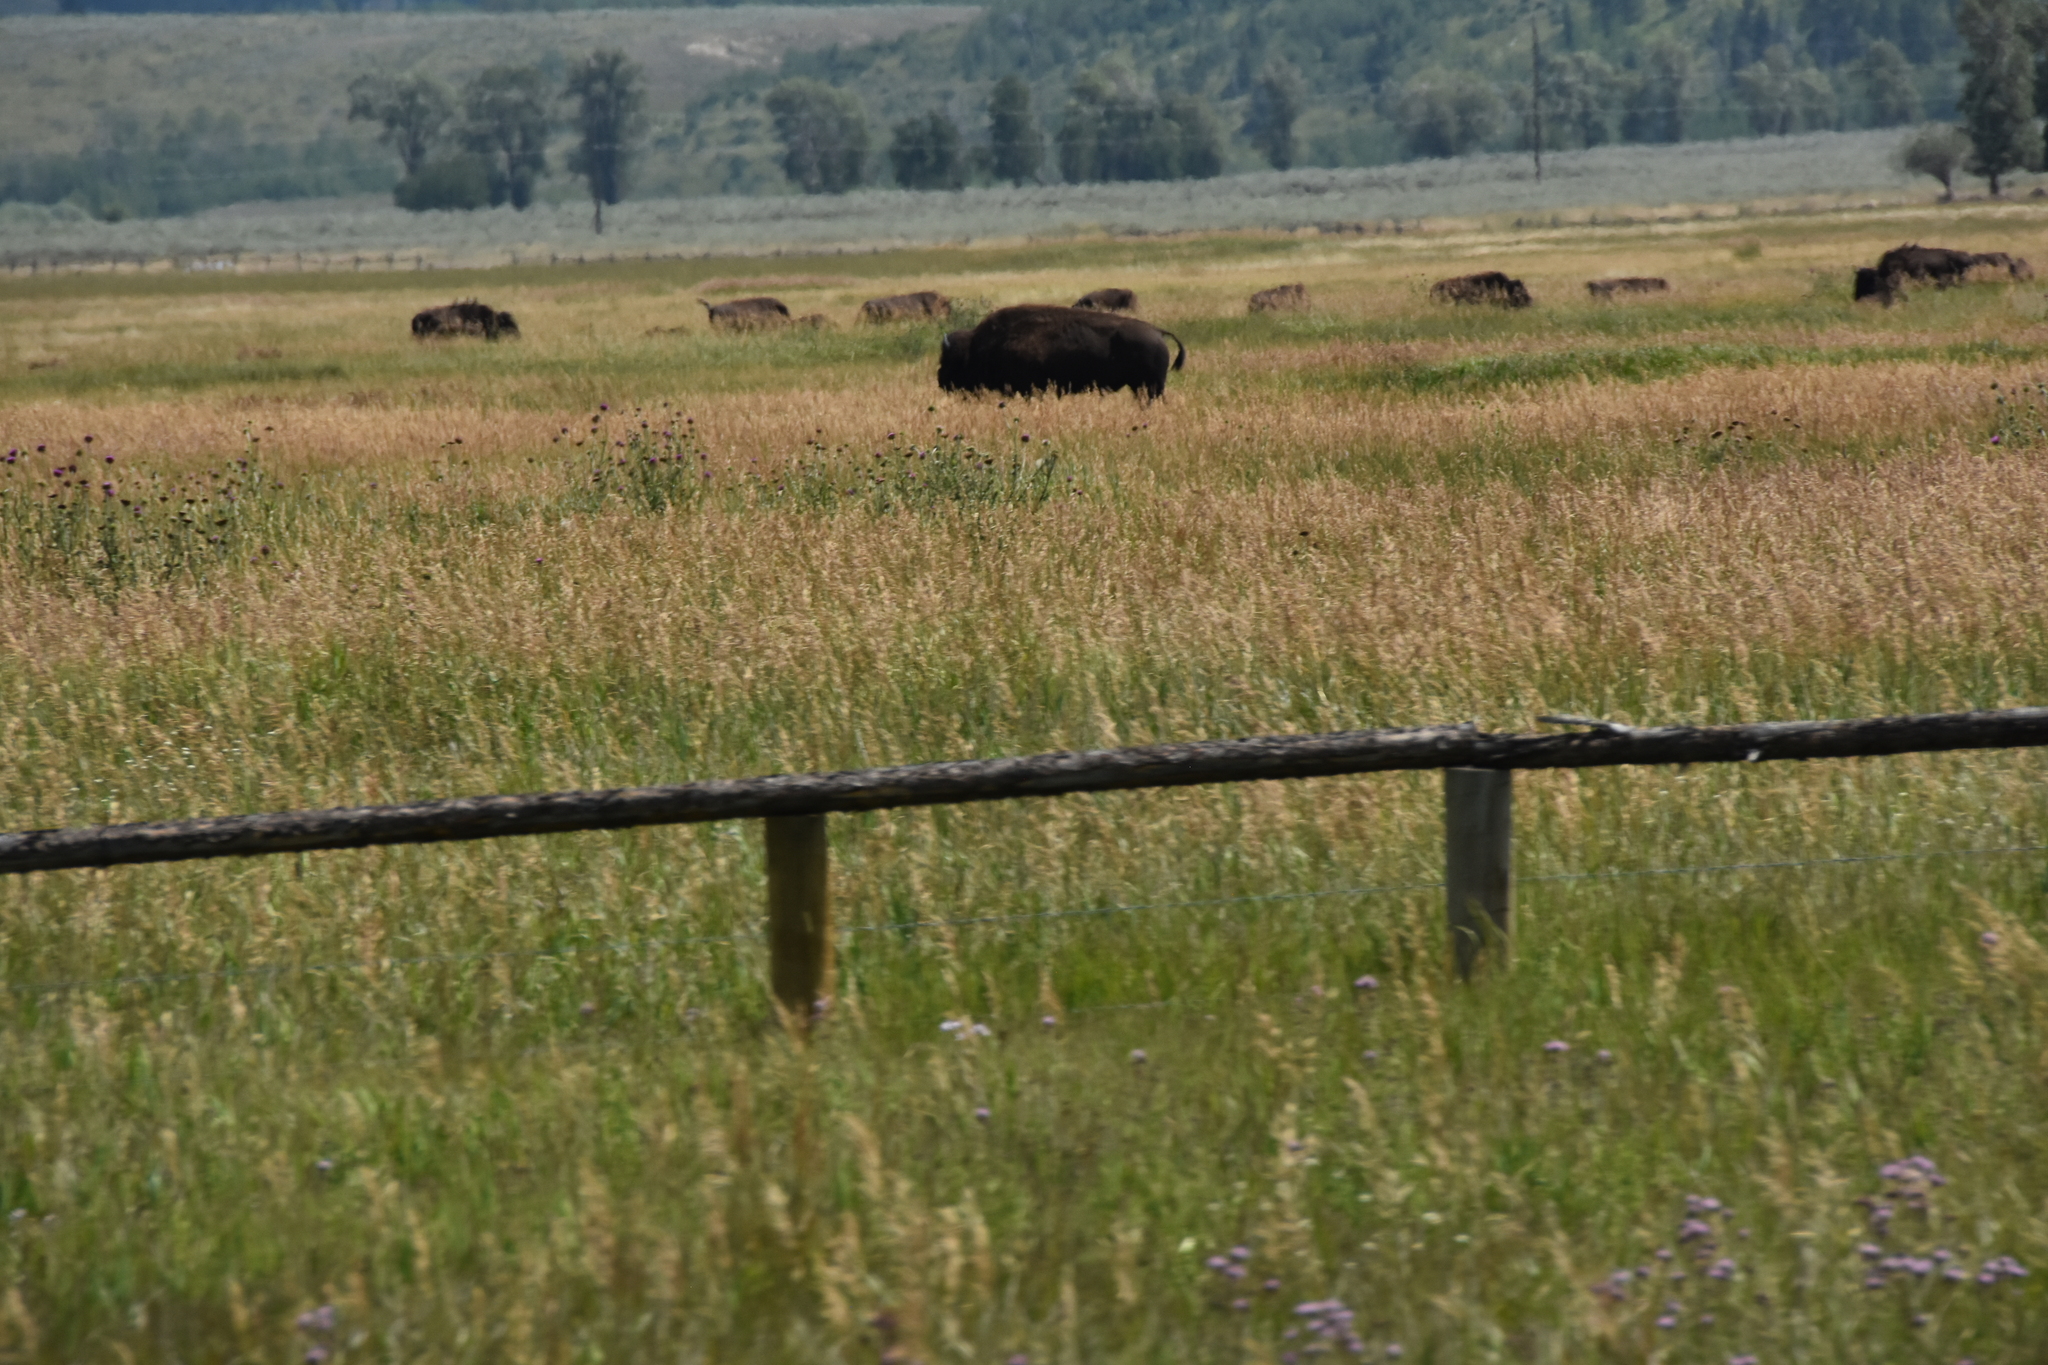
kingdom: Animalia
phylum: Chordata
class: Mammalia
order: Artiodactyla
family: Bovidae
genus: Bison
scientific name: Bison bison
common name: American bison
